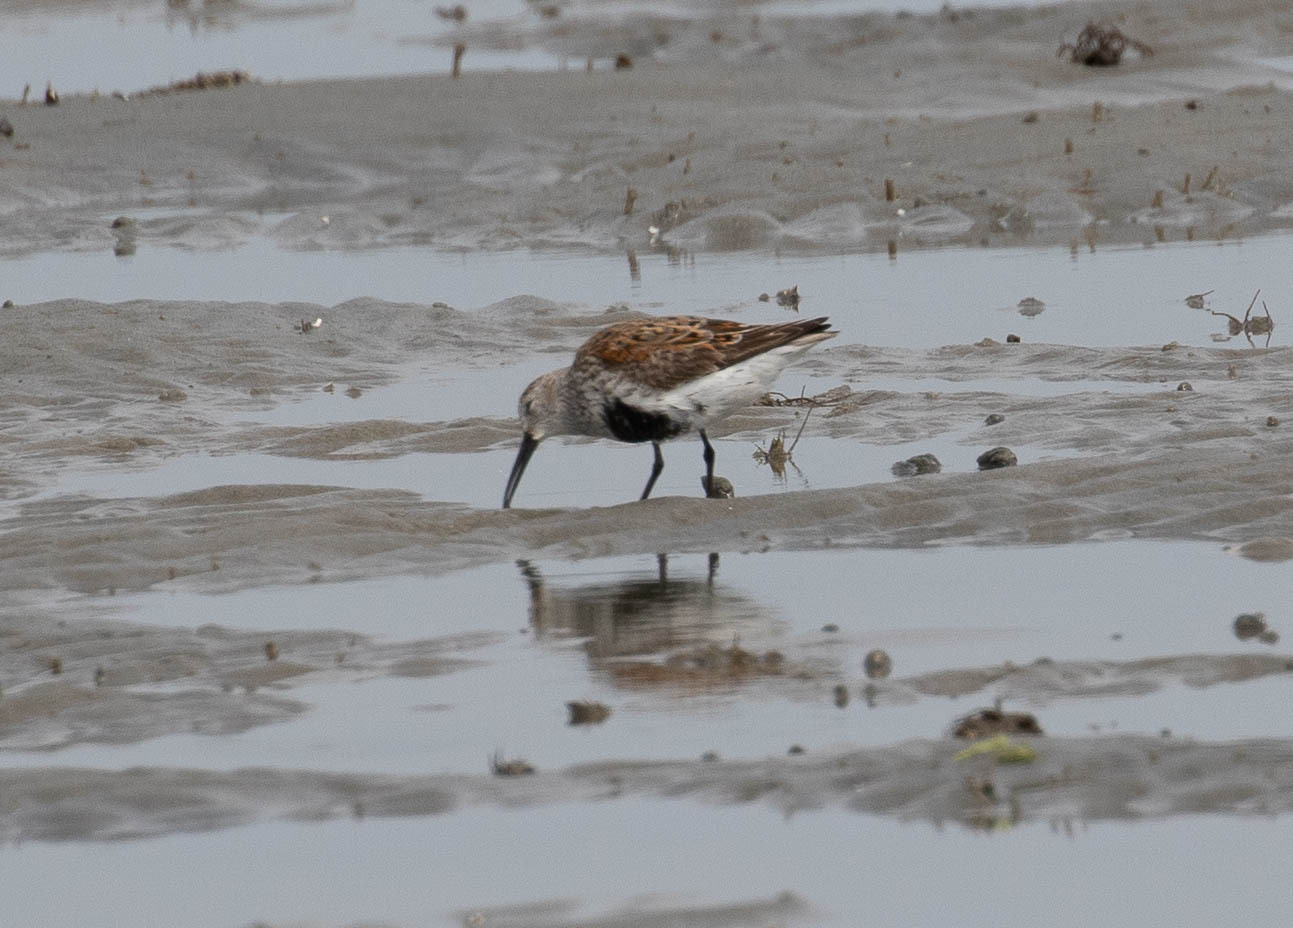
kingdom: Animalia
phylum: Chordata
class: Aves
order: Charadriiformes
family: Scolopacidae
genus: Calidris
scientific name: Calidris alpina
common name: Dunlin
